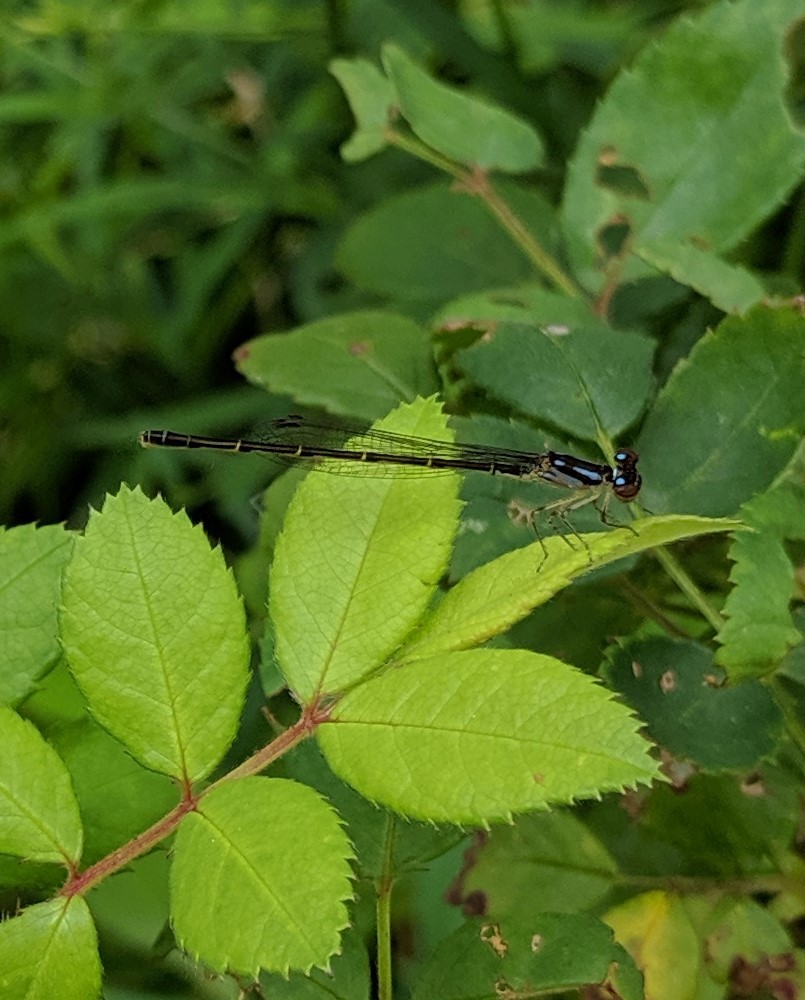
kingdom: Animalia
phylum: Arthropoda
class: Insecta
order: Odonata
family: Coenagrionidae
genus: Ischnura
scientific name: Ischnura posita
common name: Fragile forktail
